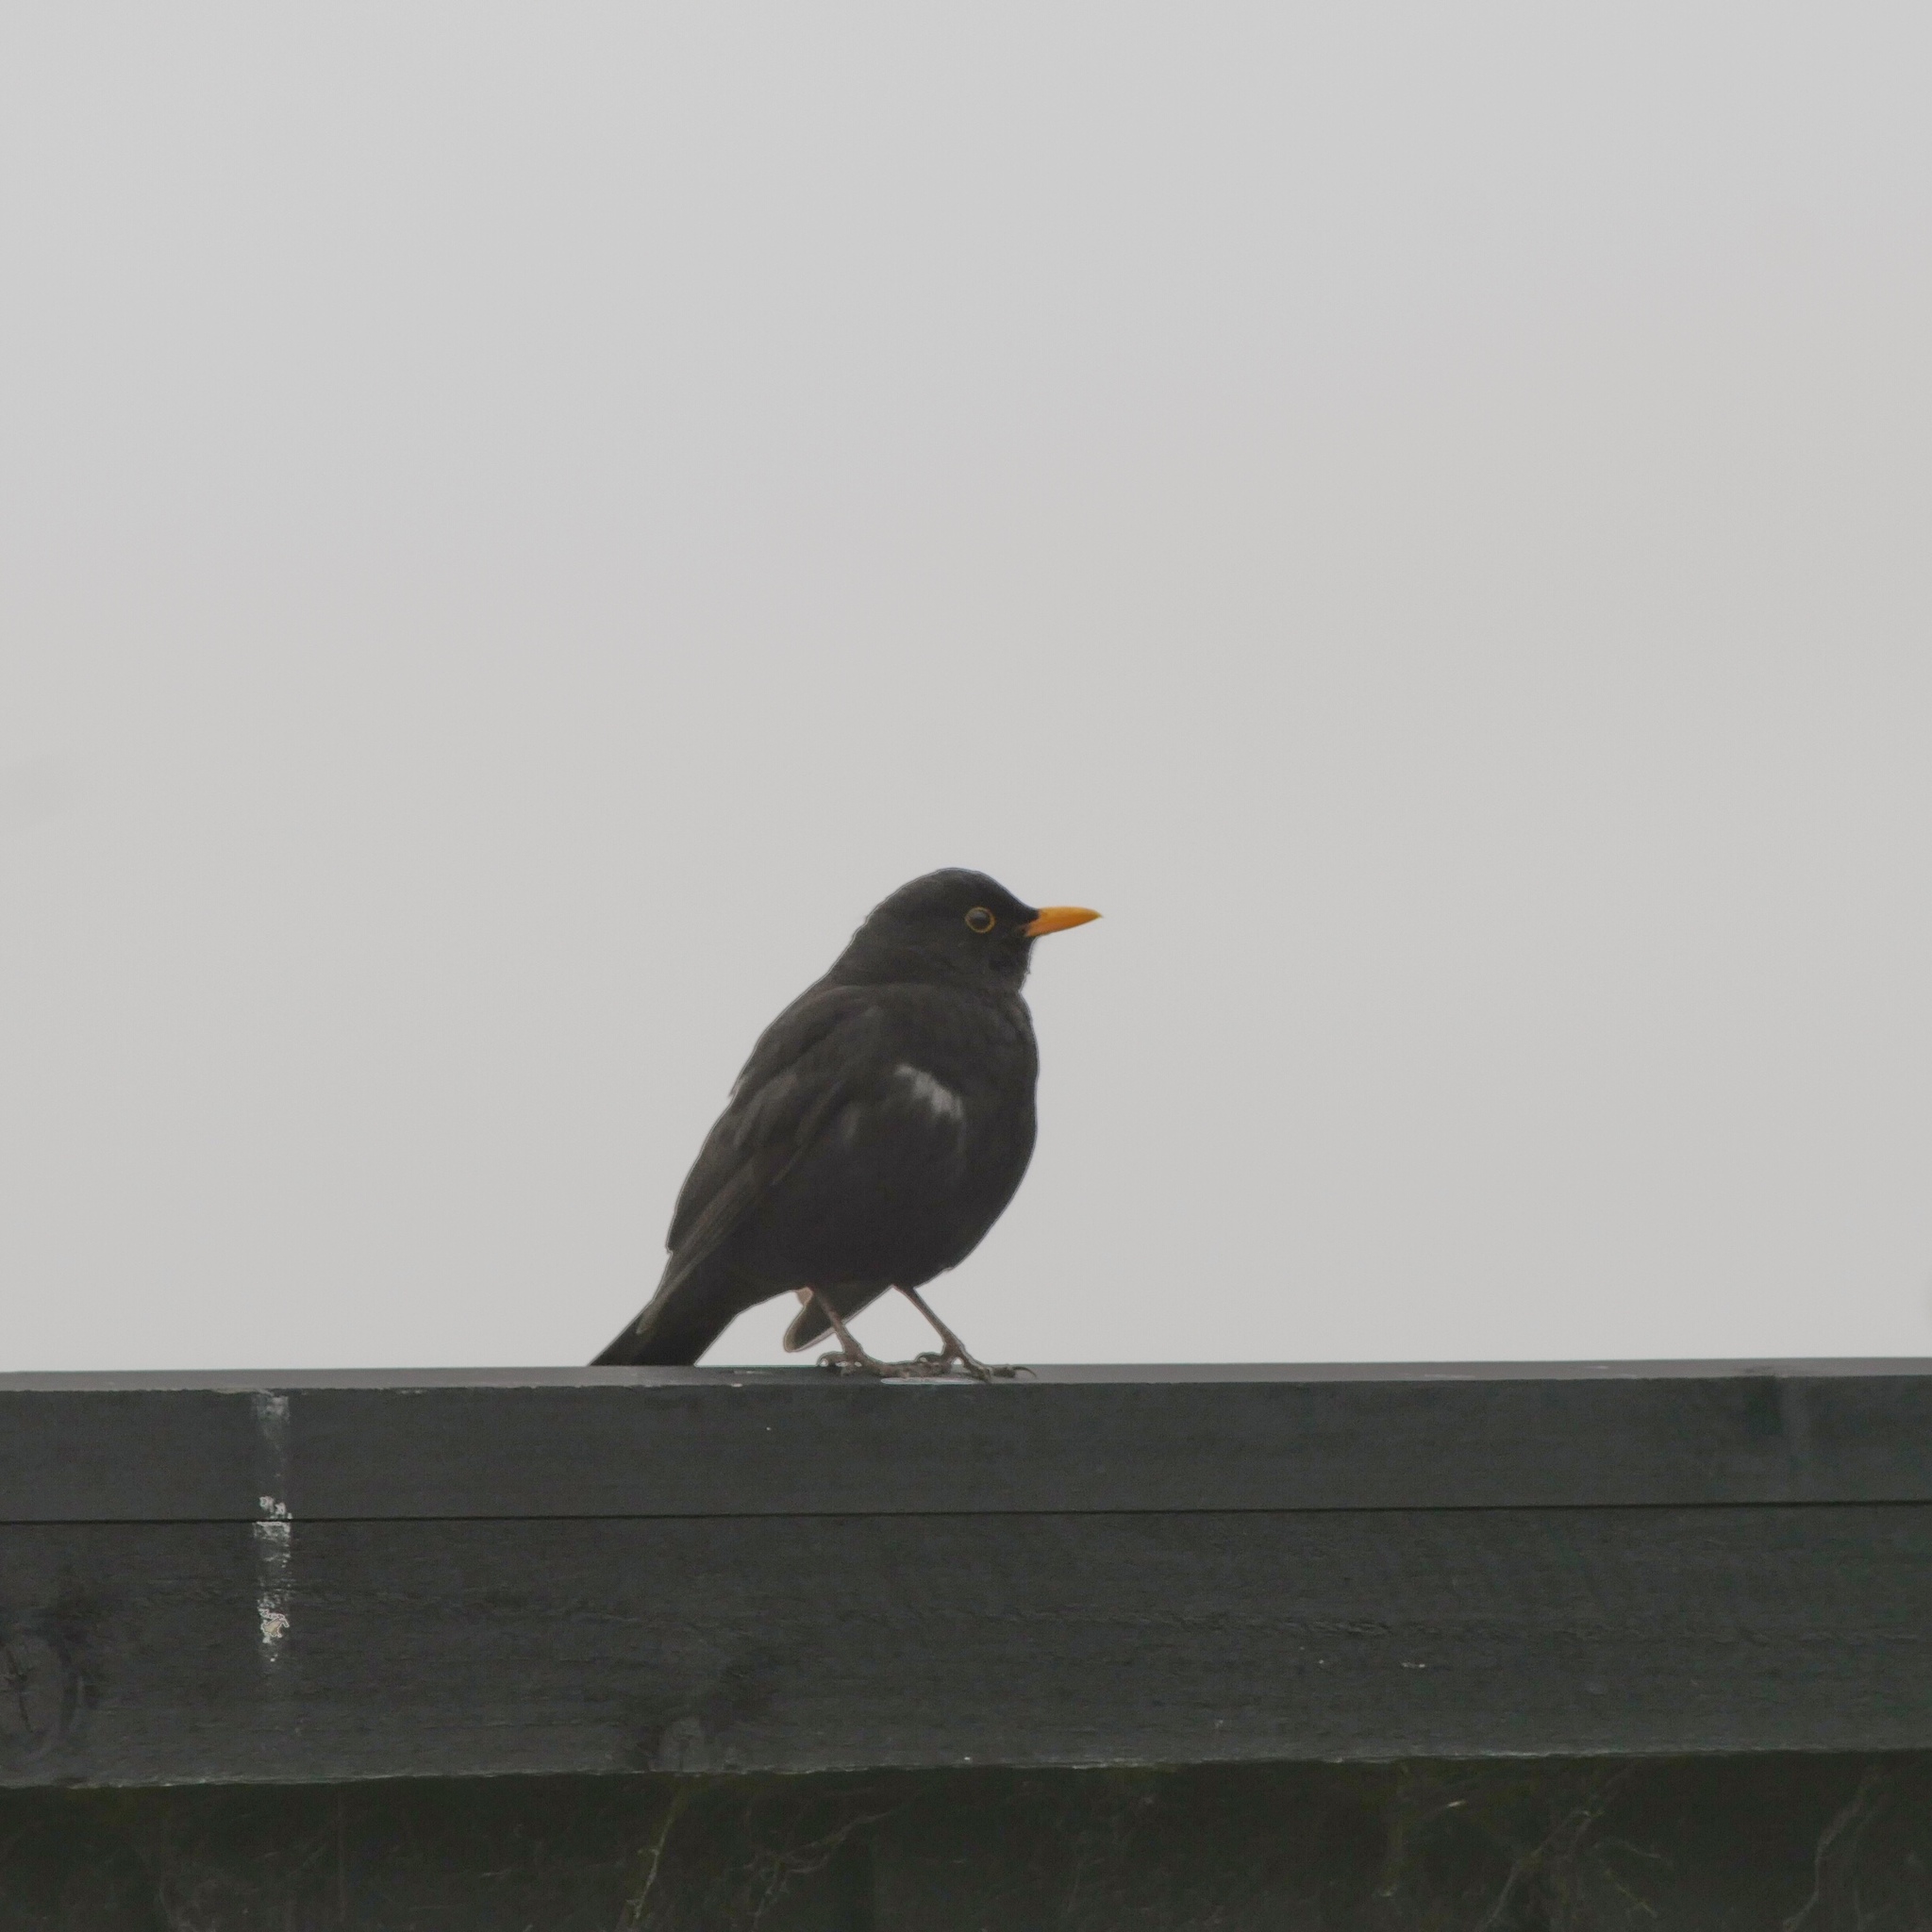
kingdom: Animalia
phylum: Chordata
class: Aves
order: Passeriformes
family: Turdidae
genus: Turdus
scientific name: Turdus merula
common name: Common blackbird
